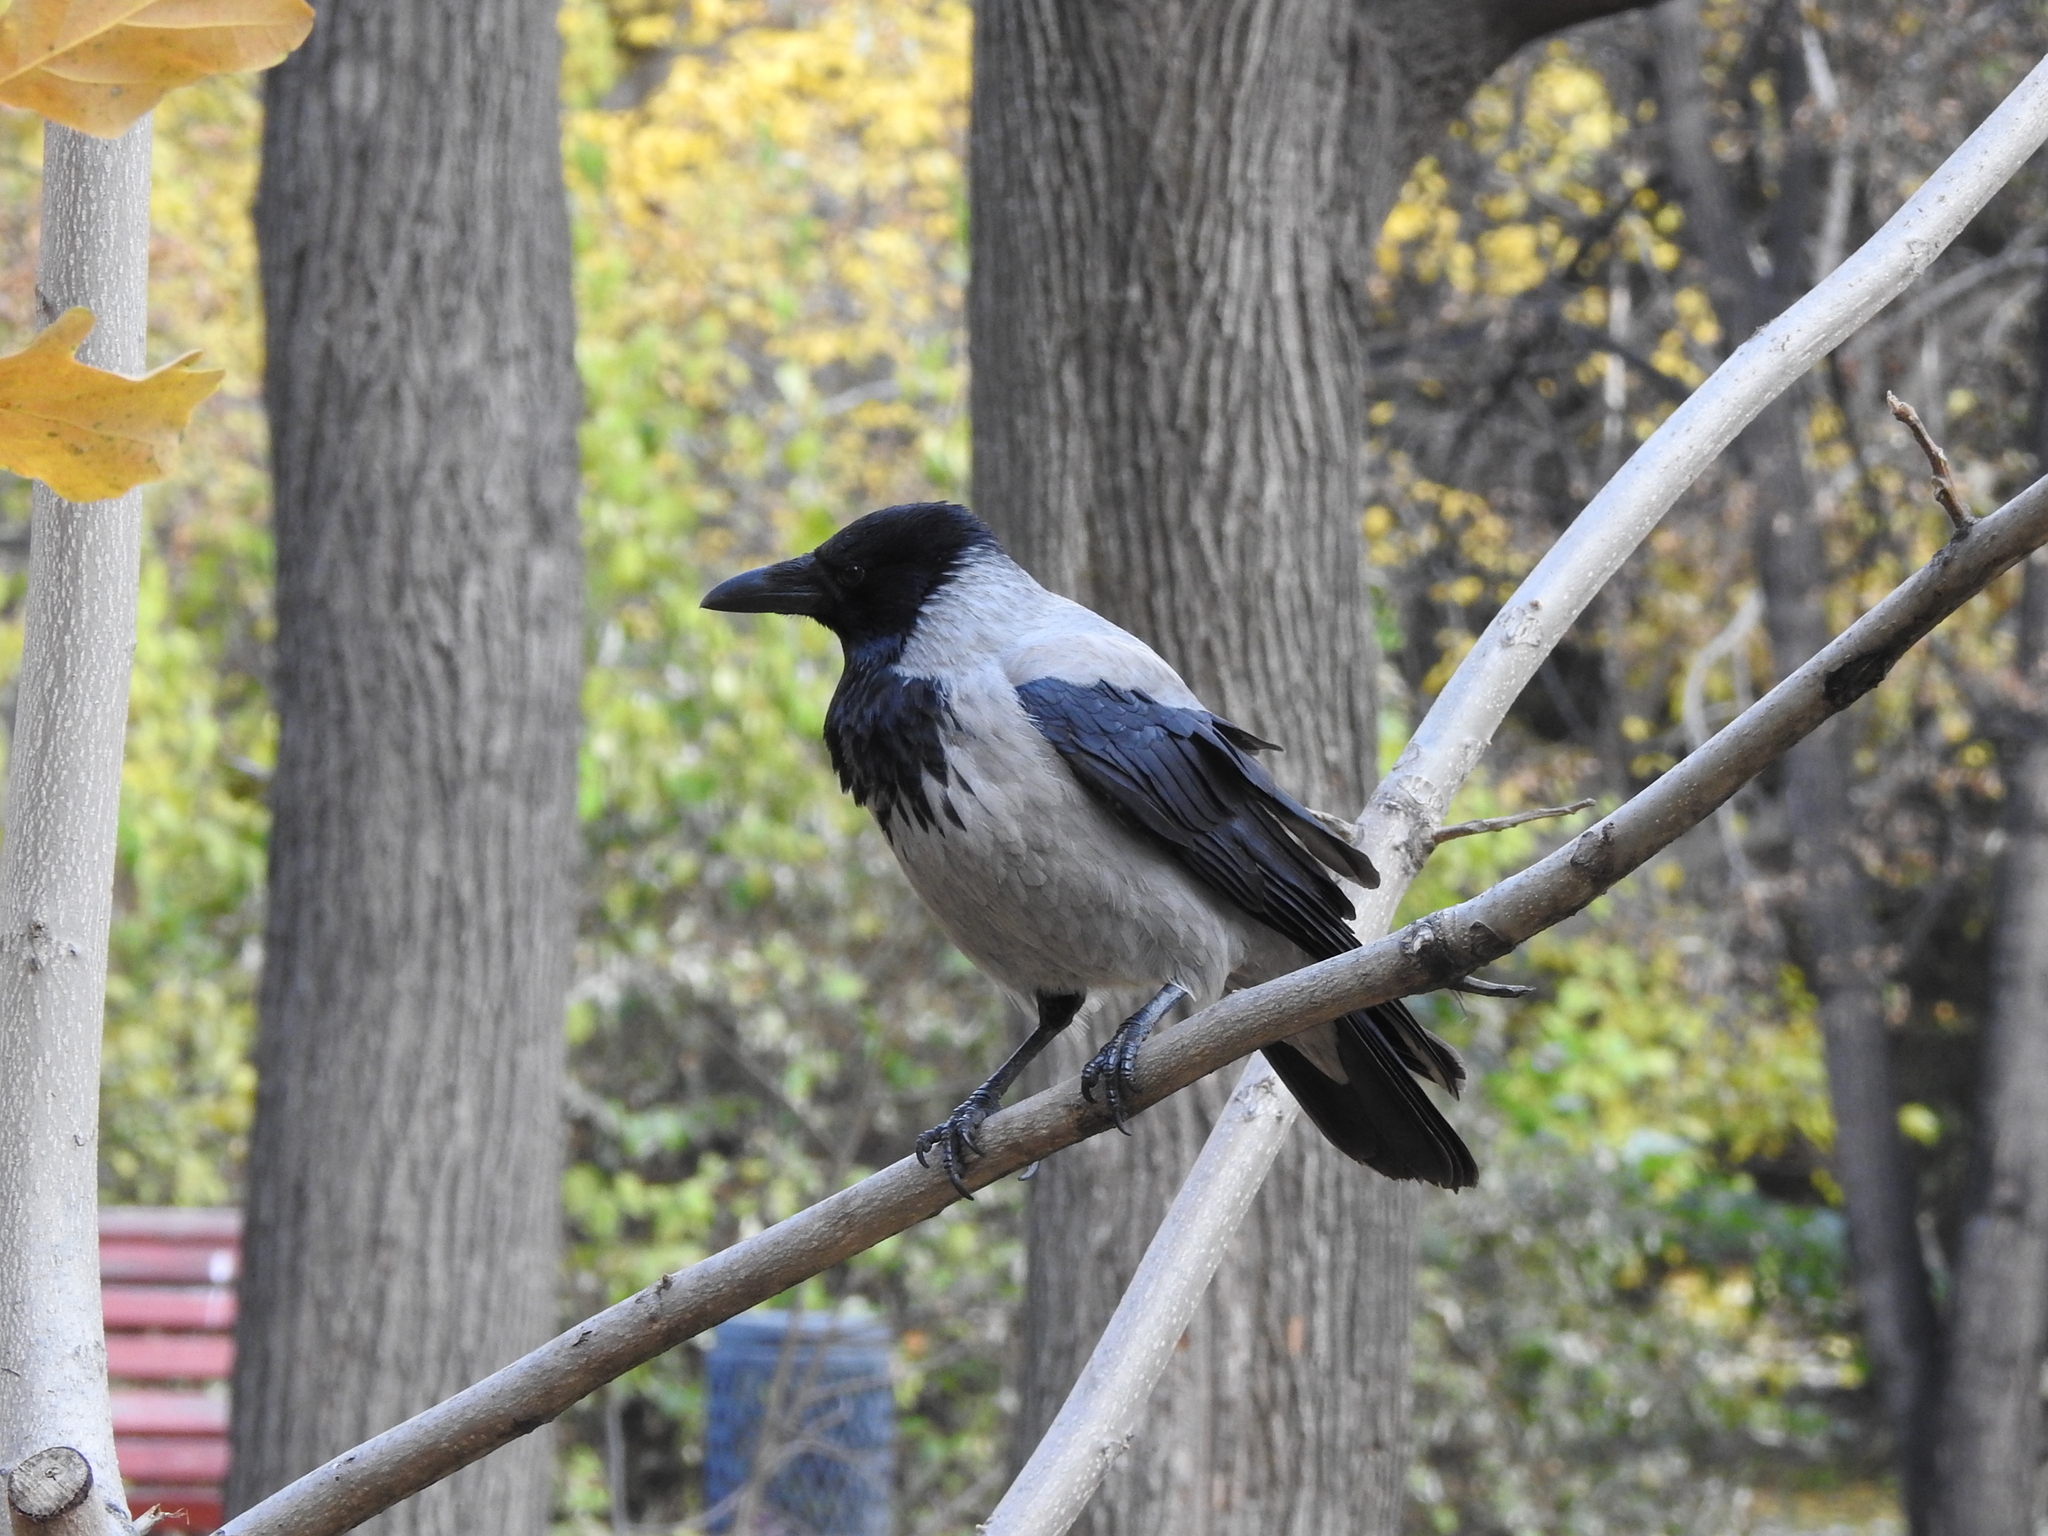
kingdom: Animalia
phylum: Chordata
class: Aves
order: Passeriformes
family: Corvidae
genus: Corvus
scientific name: Corvus cornix
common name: Hooded crow
